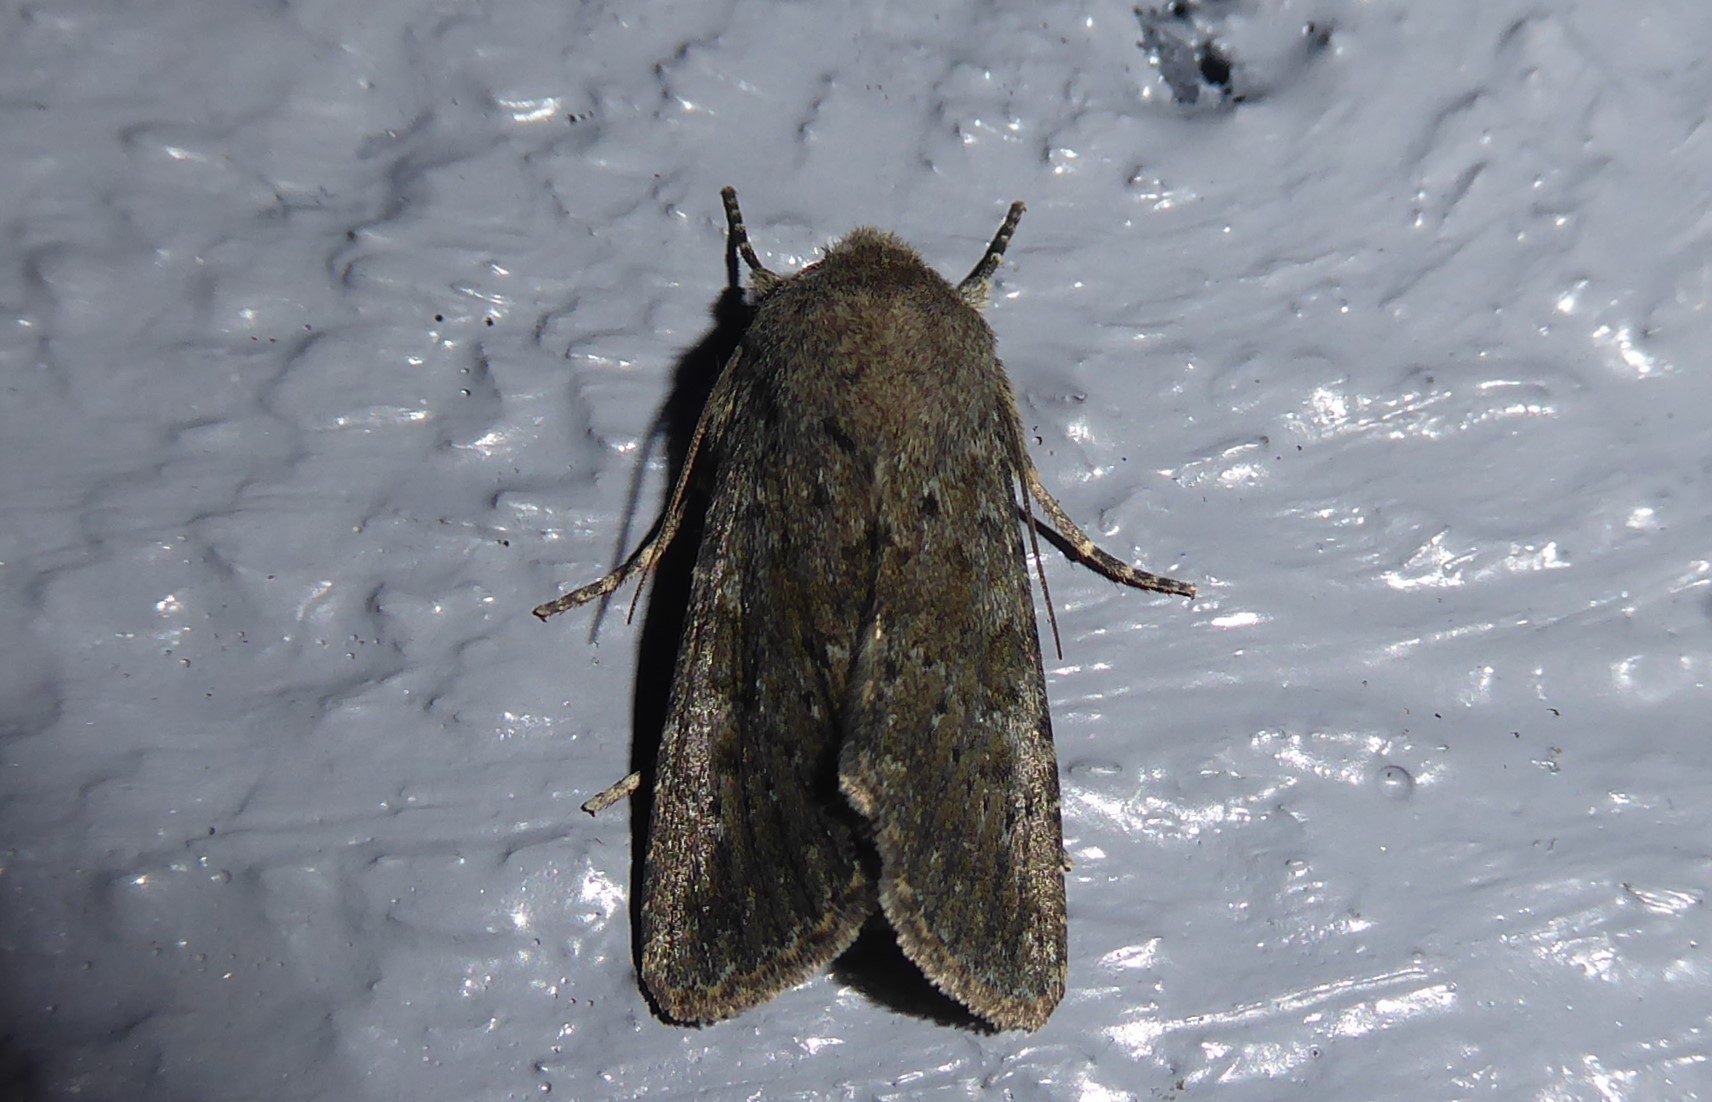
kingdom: Animalia
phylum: Arthropoda
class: Insecta
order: Lepidoptera
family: Noctuidae
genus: Ichneutica
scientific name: Ichneutica moderata
